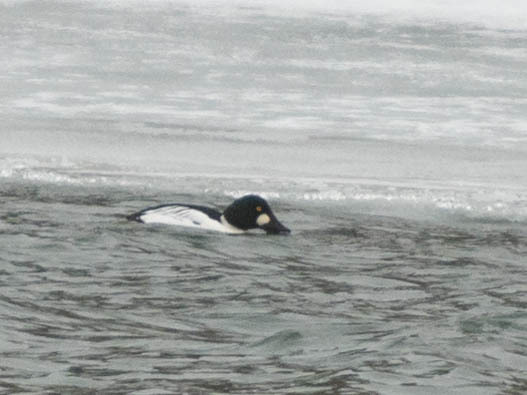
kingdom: Animalia
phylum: Chordata
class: Aves
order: Anseriformes
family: Anatidae
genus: Bucephala
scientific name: Bucephala clangula
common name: Common goldeneye
